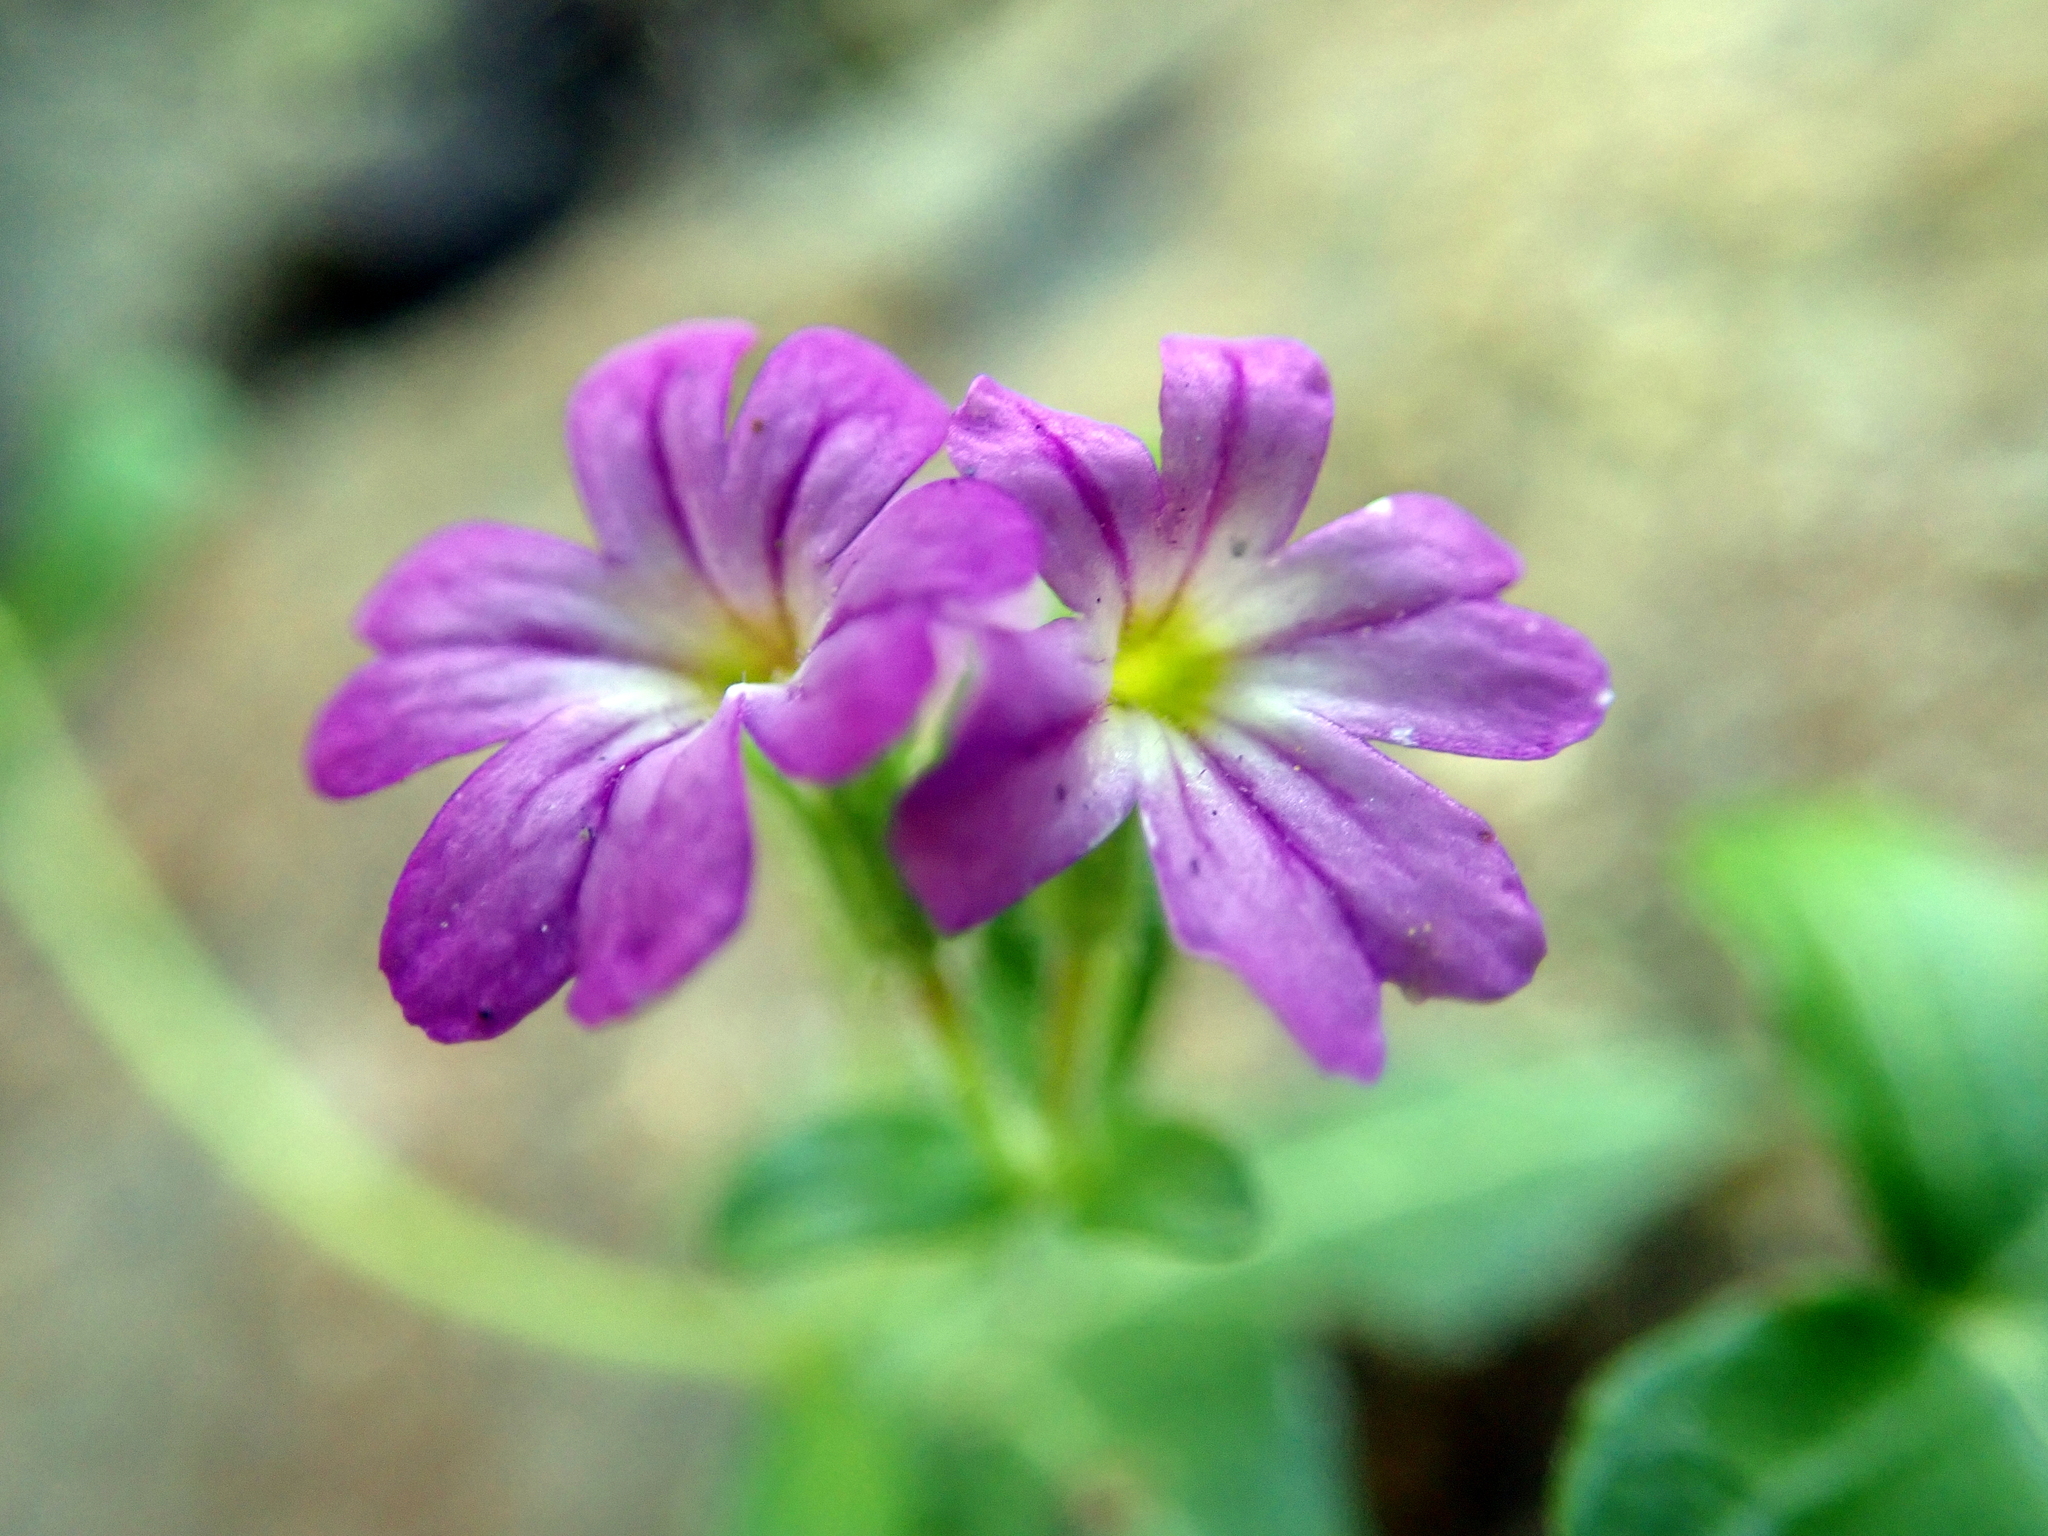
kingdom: Plantae
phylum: Tracheophyta
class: Magnoliopsida
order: Lamiales
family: Plantaginaceae
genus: Erinus
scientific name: Erinus alpinus
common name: Fairy foxglove
